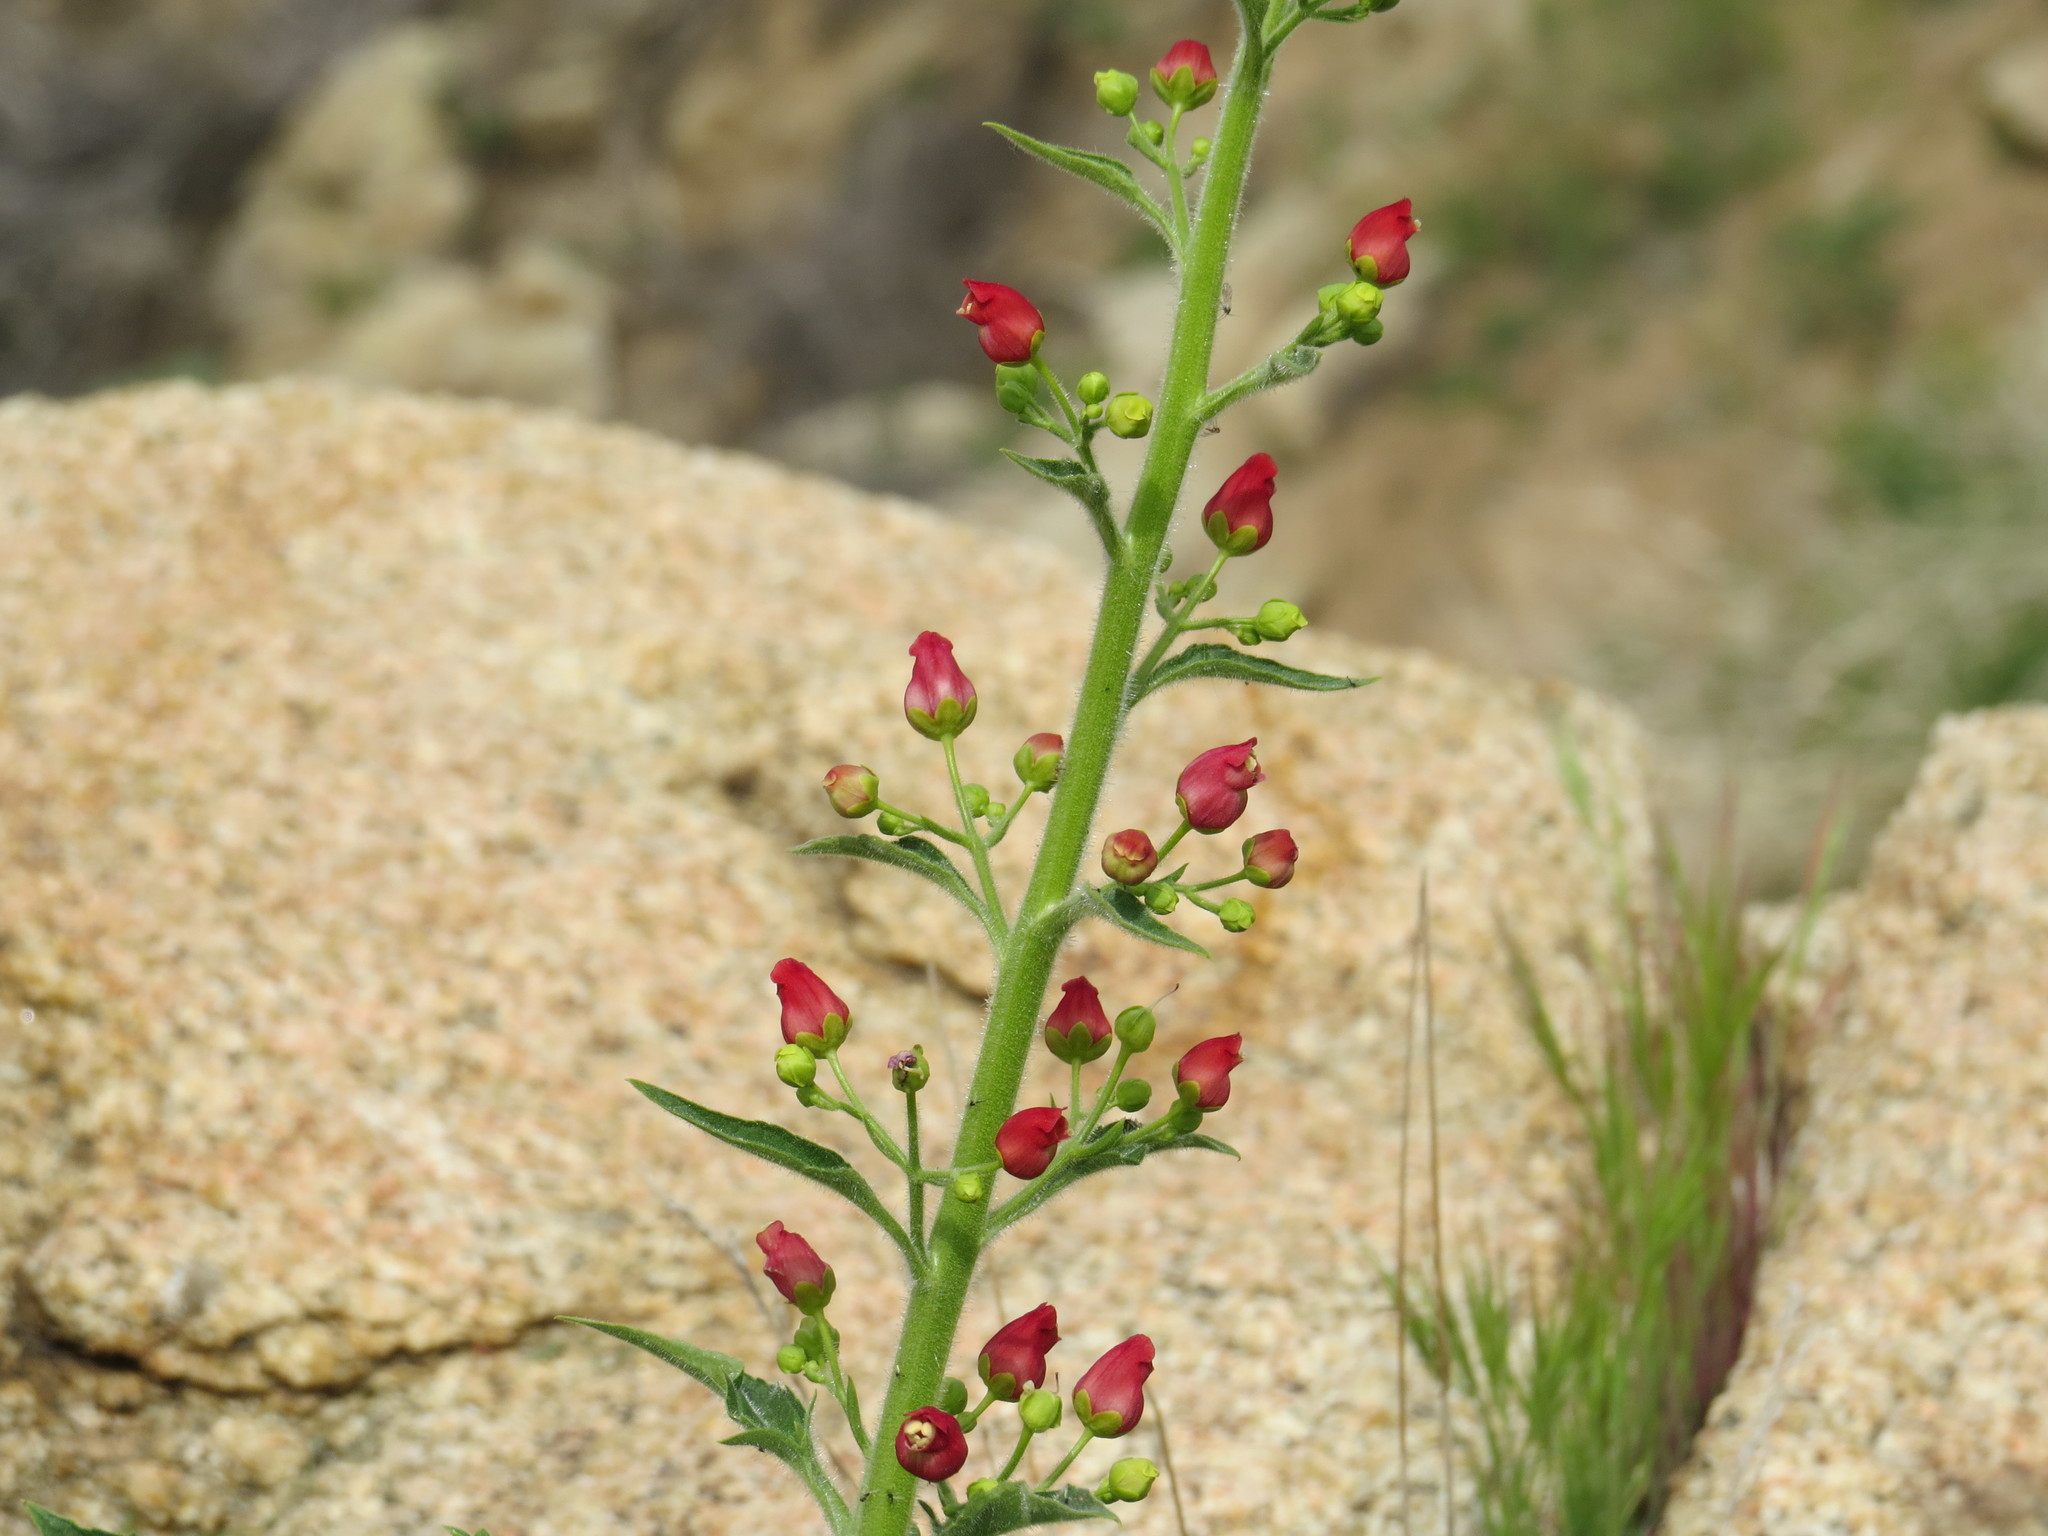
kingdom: Plantae
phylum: Tracheophyta
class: Magnoliopsida
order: Lamiales
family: Scrophulariaceae
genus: Scrophularia
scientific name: Scrophularia californica
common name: California figwort
